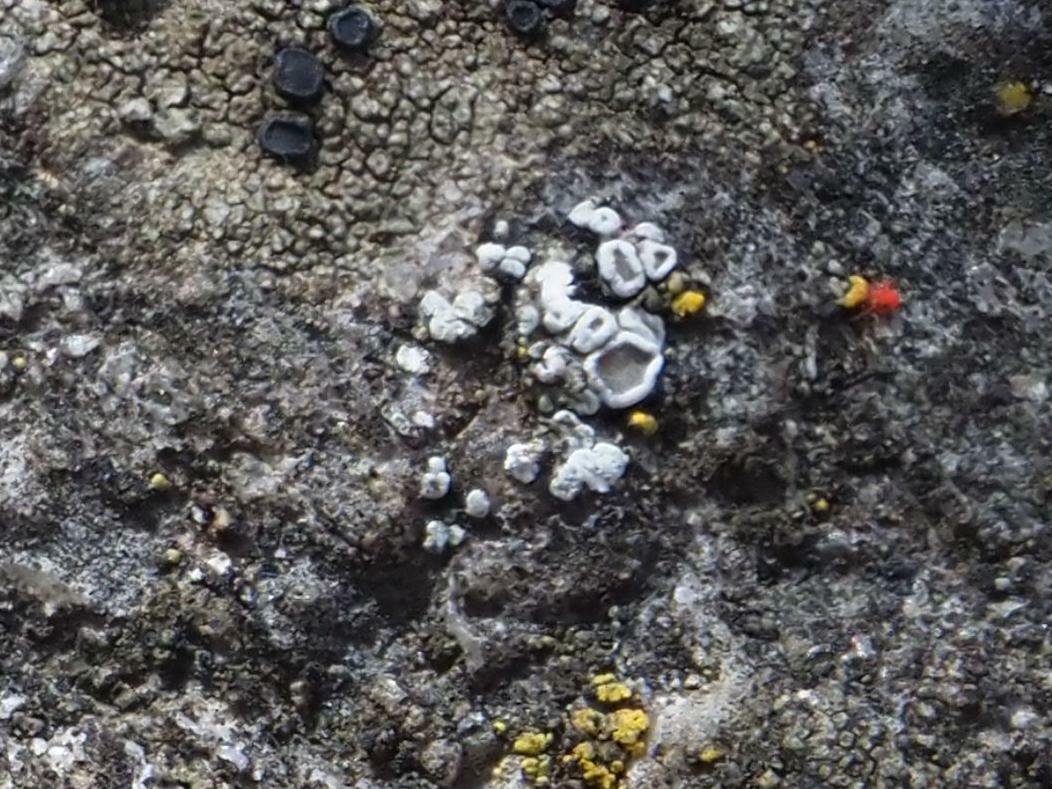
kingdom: Fungi
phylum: Ascomycota
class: Lecanoromycetes
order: Lecanorales
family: Lecanoraceae
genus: Polyozosia
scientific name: Polyozosia dispersa
